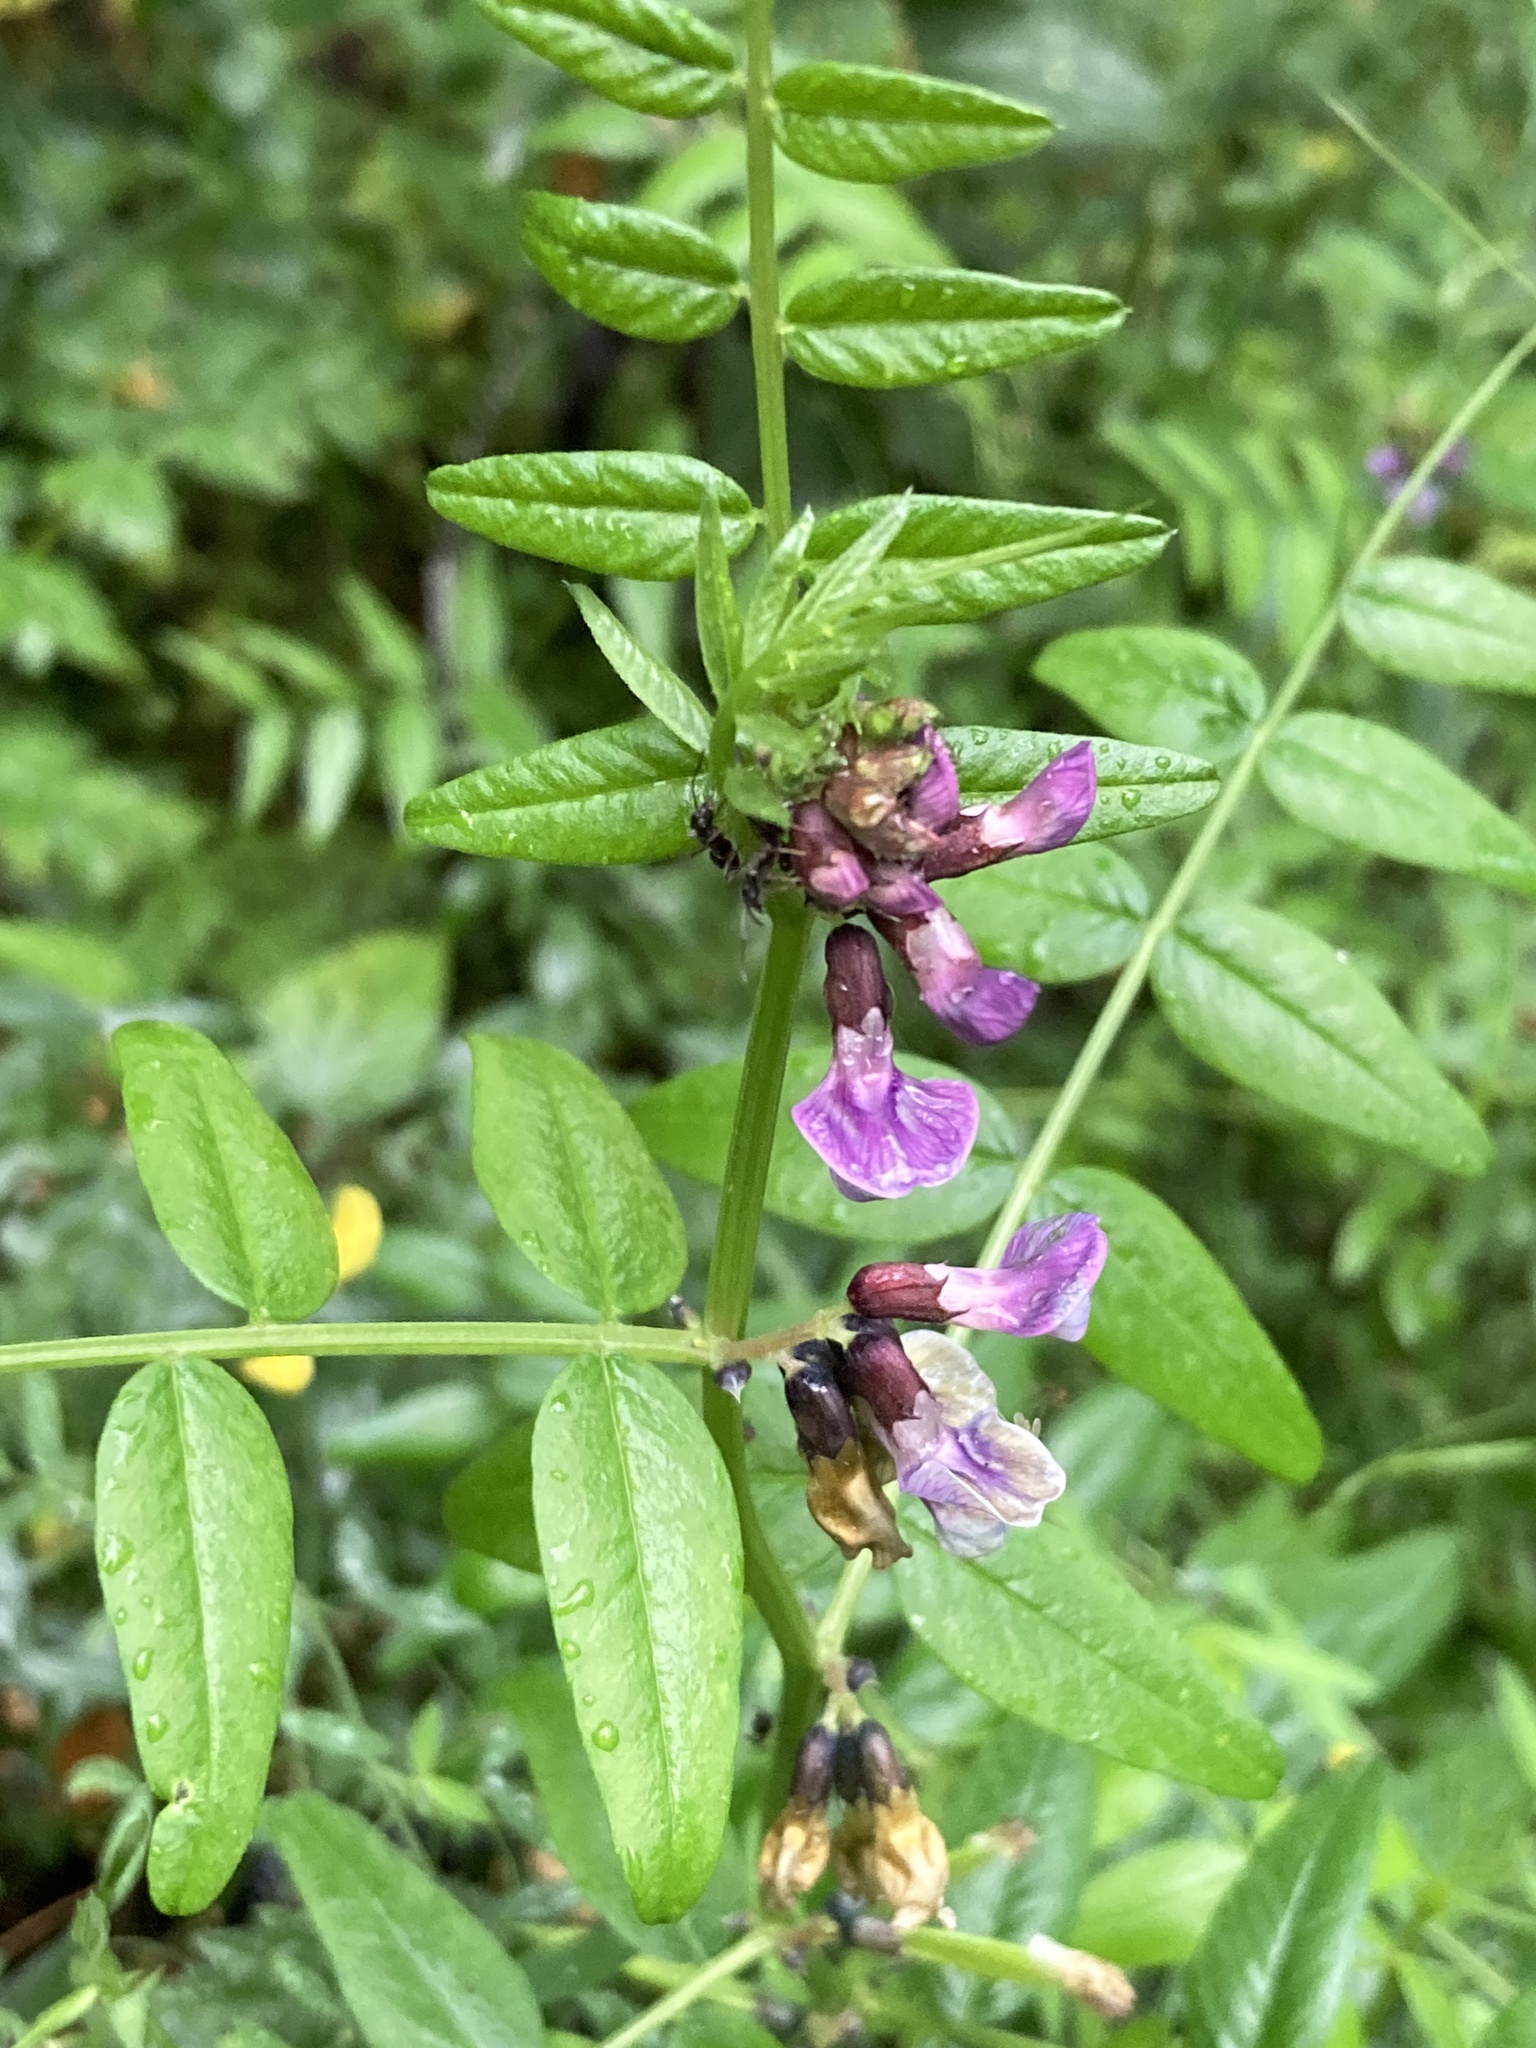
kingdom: Plantae
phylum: Tracheophyta
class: Magnoliopsida
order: Fabales
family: Fabaceae
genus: Vicia
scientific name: Vicia sepium
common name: Bush vetch
